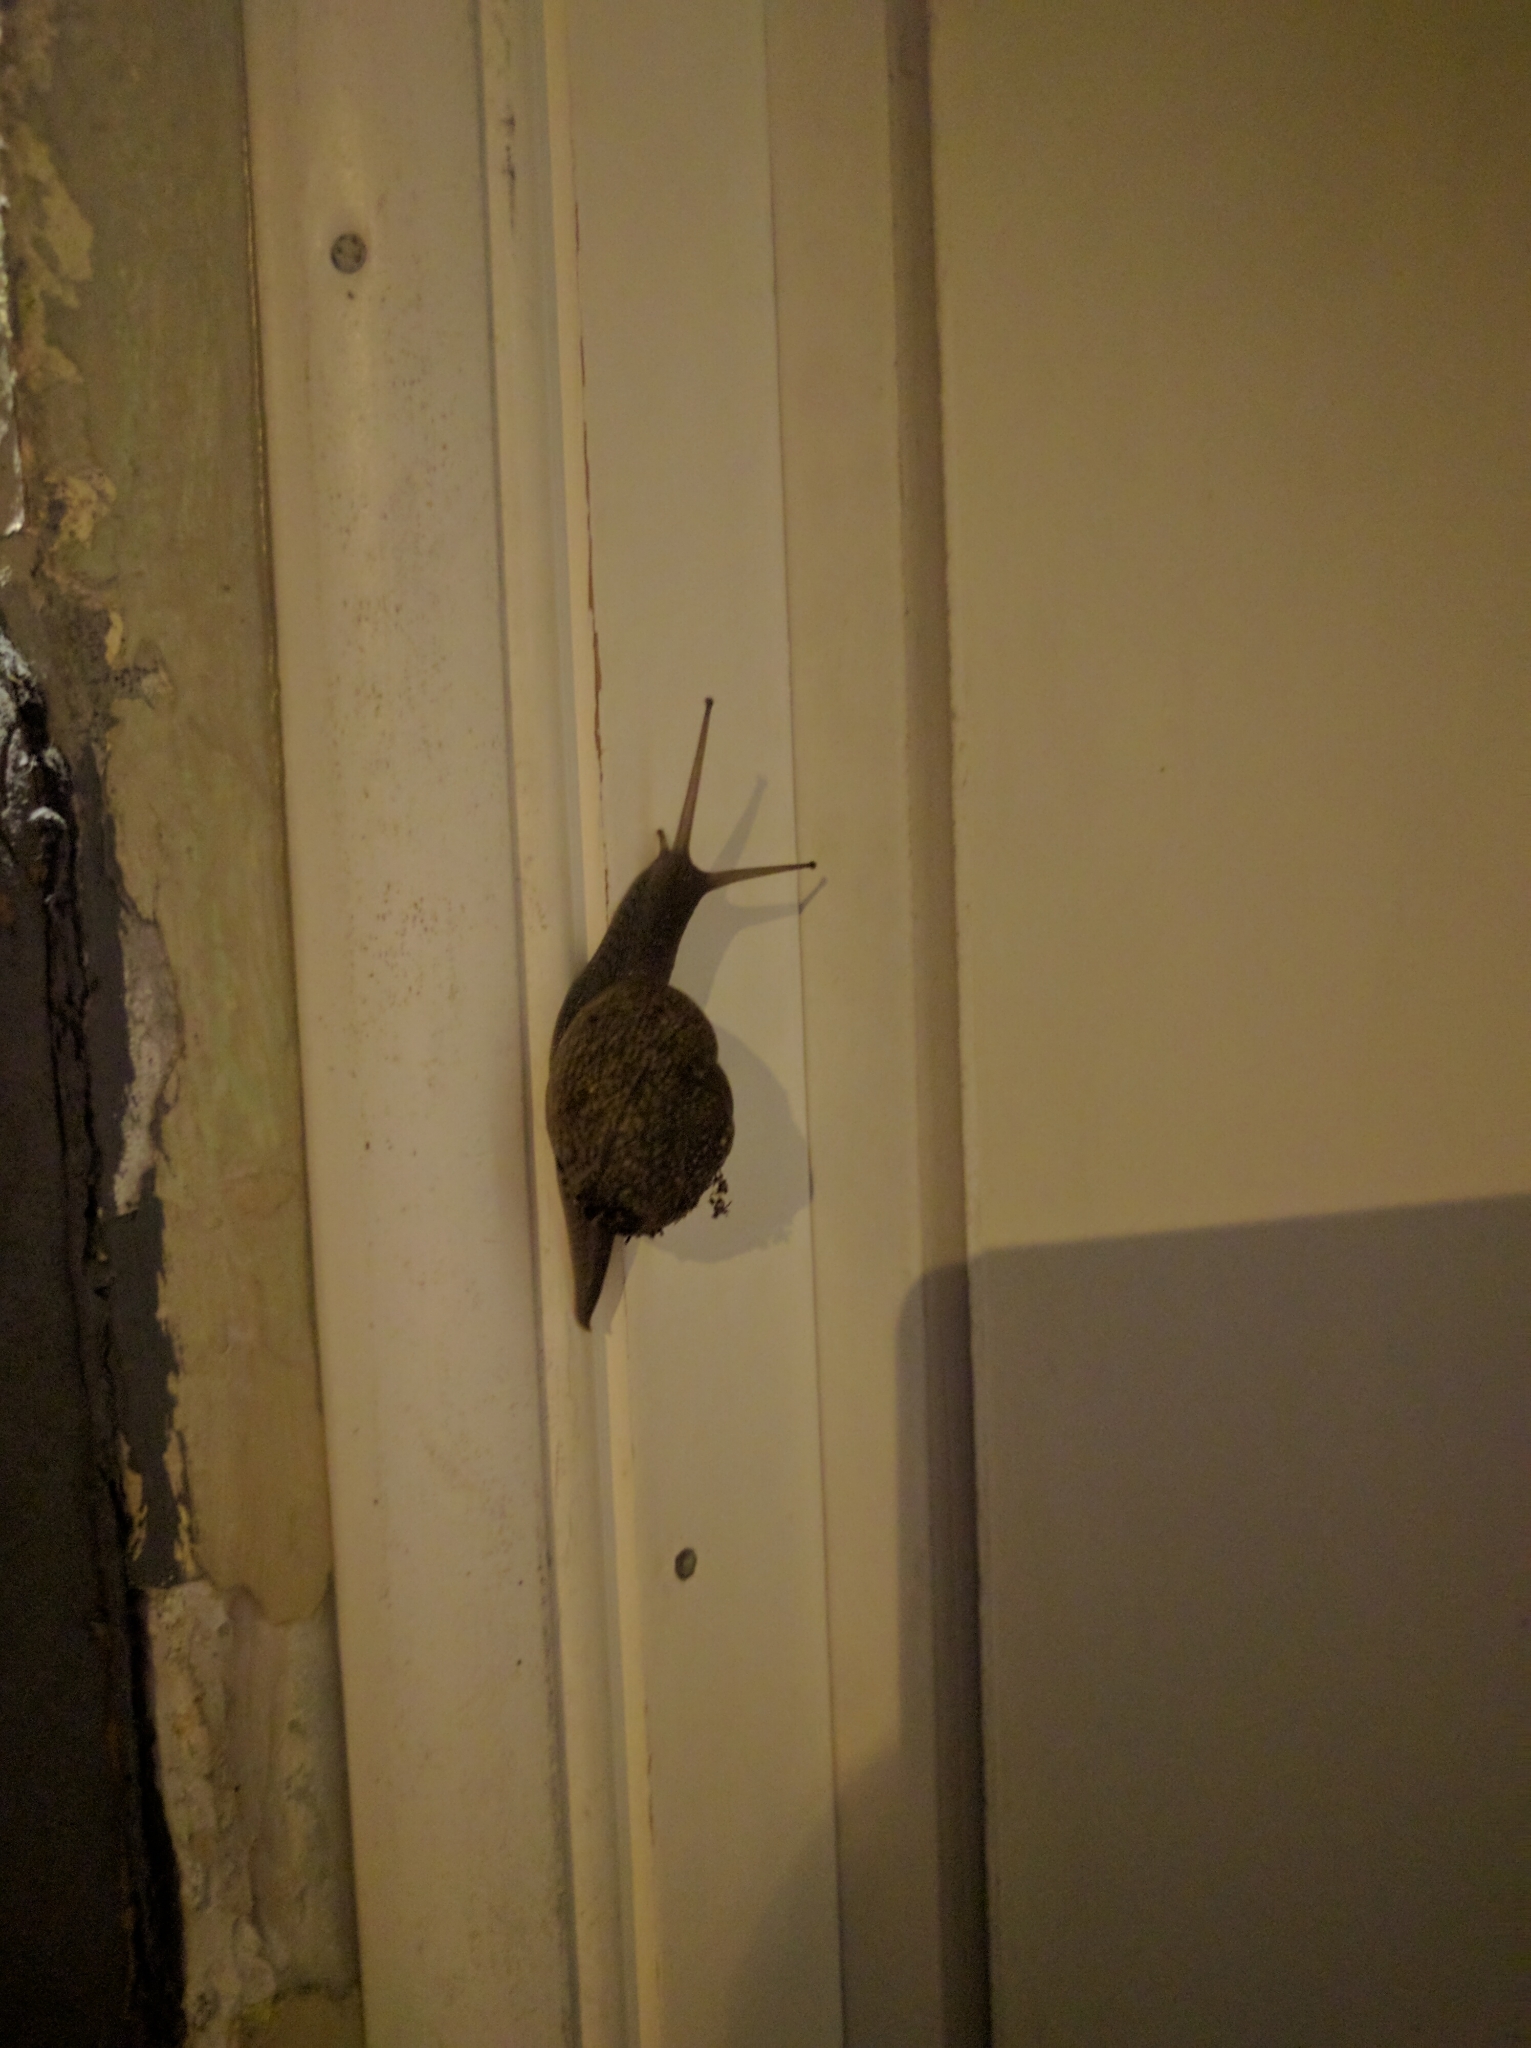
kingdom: Animalia
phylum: Mollusca
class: Gastropoda
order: Stylommatophora
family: Zachrysiidae
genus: Zachrysia
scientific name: Zachrysia provisoria
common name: Garden zachrysia
